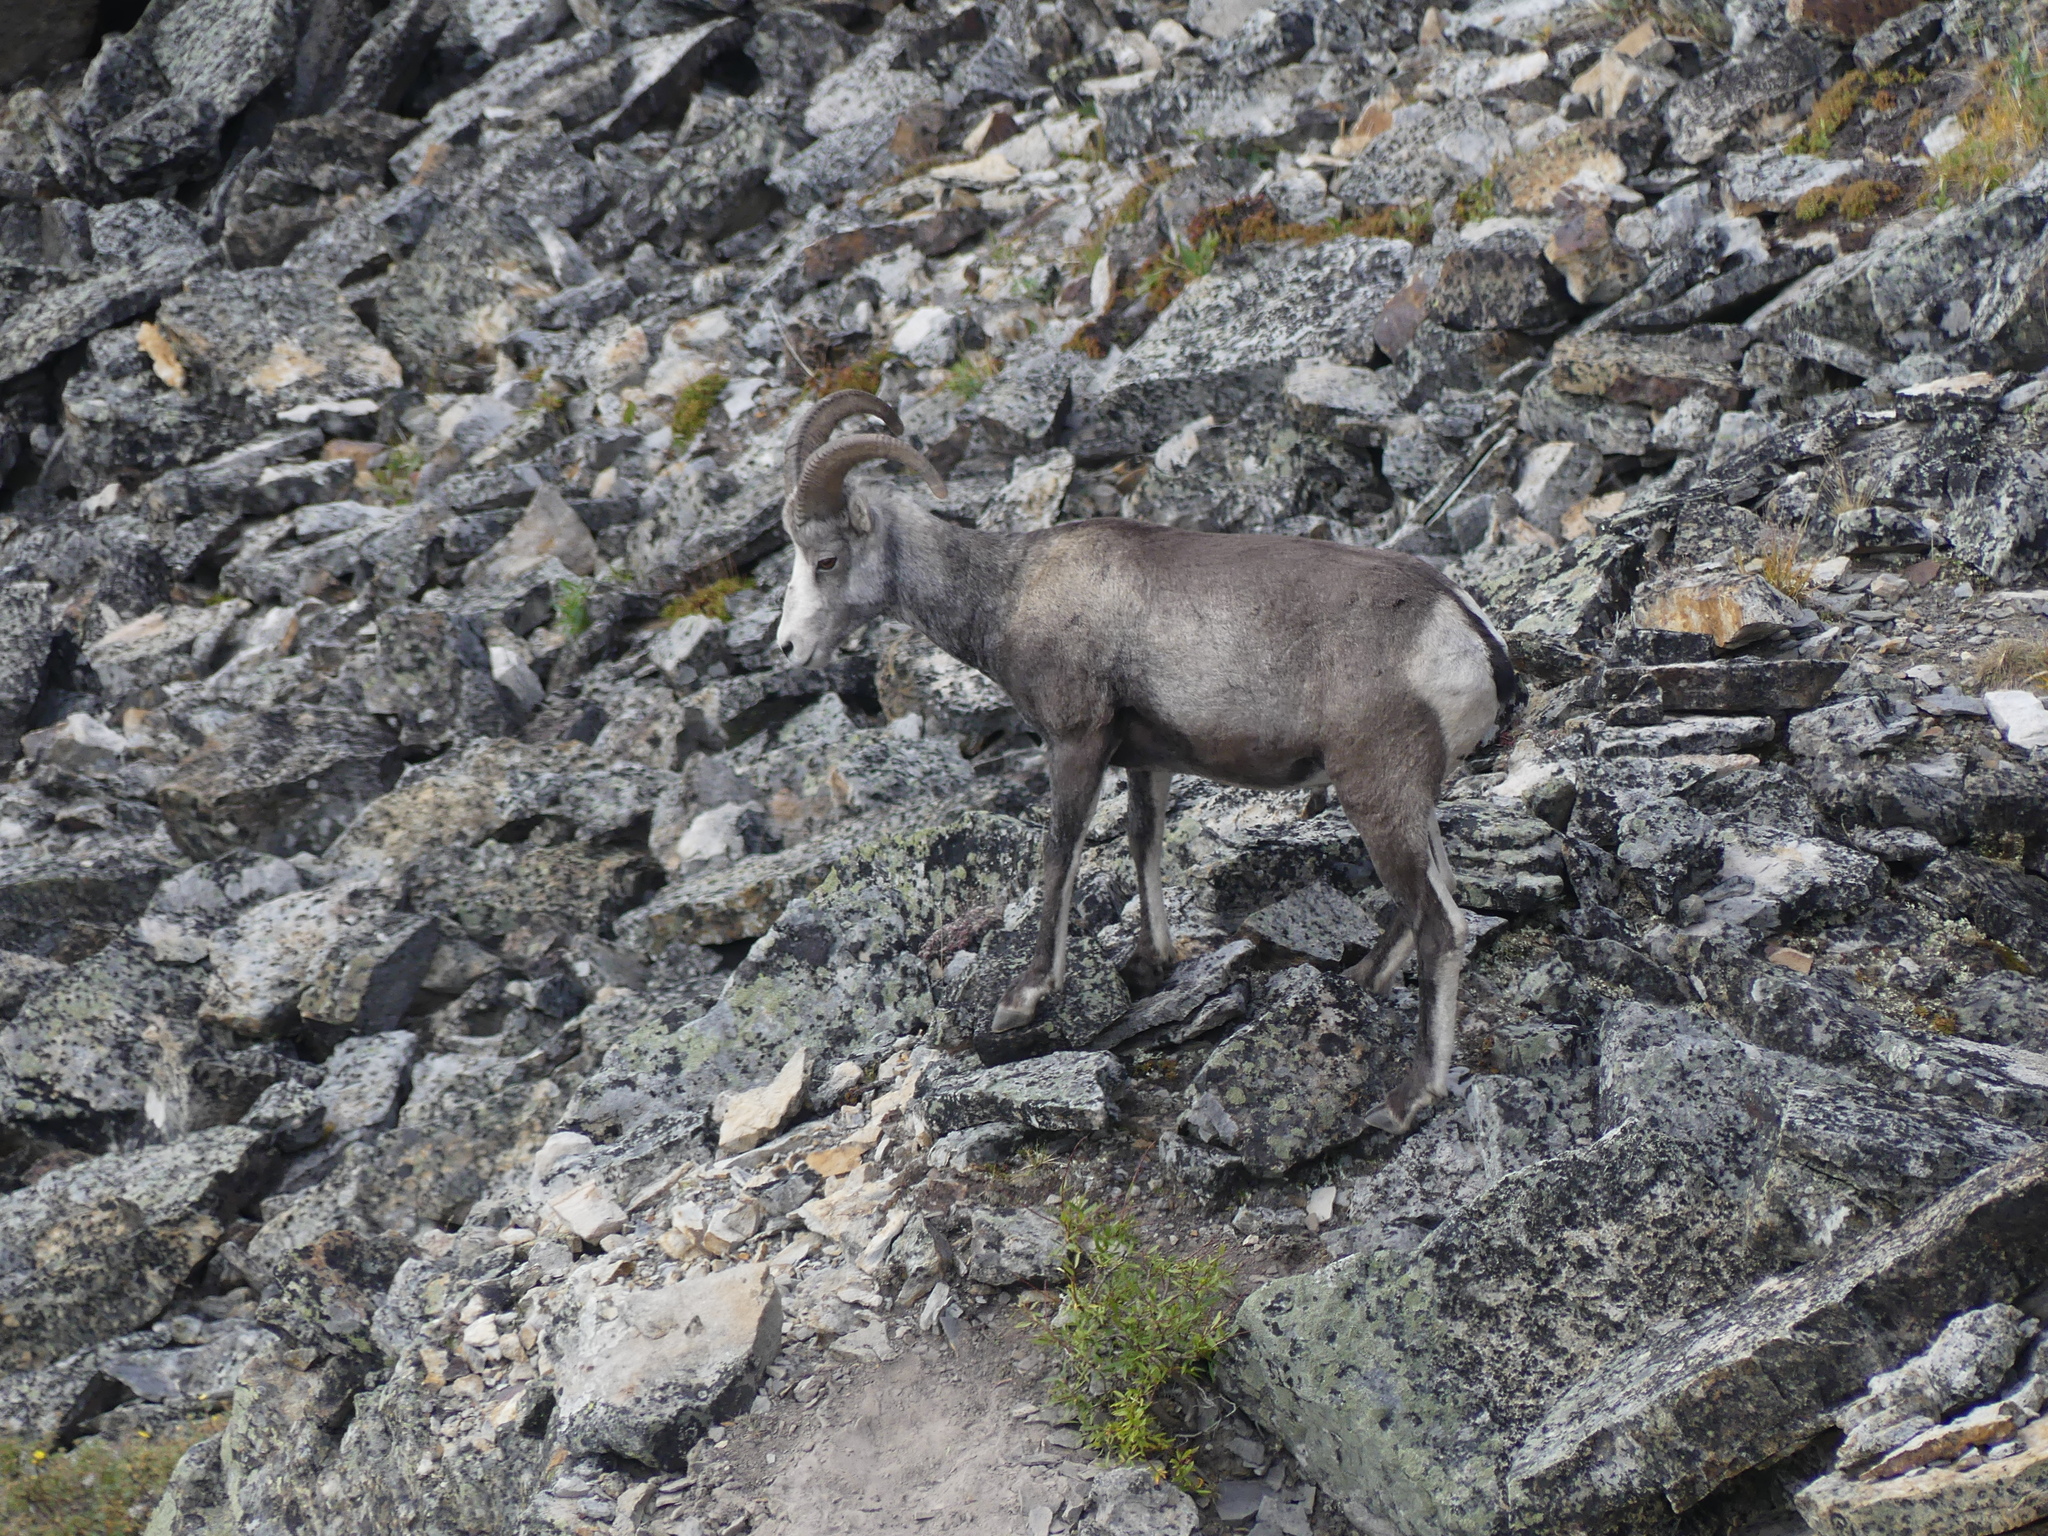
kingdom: Animalia
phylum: Chordata
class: Mammalia
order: Artiodactyla
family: Bovidae
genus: Ovis
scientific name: Ovis dalli
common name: Dall's sheep
